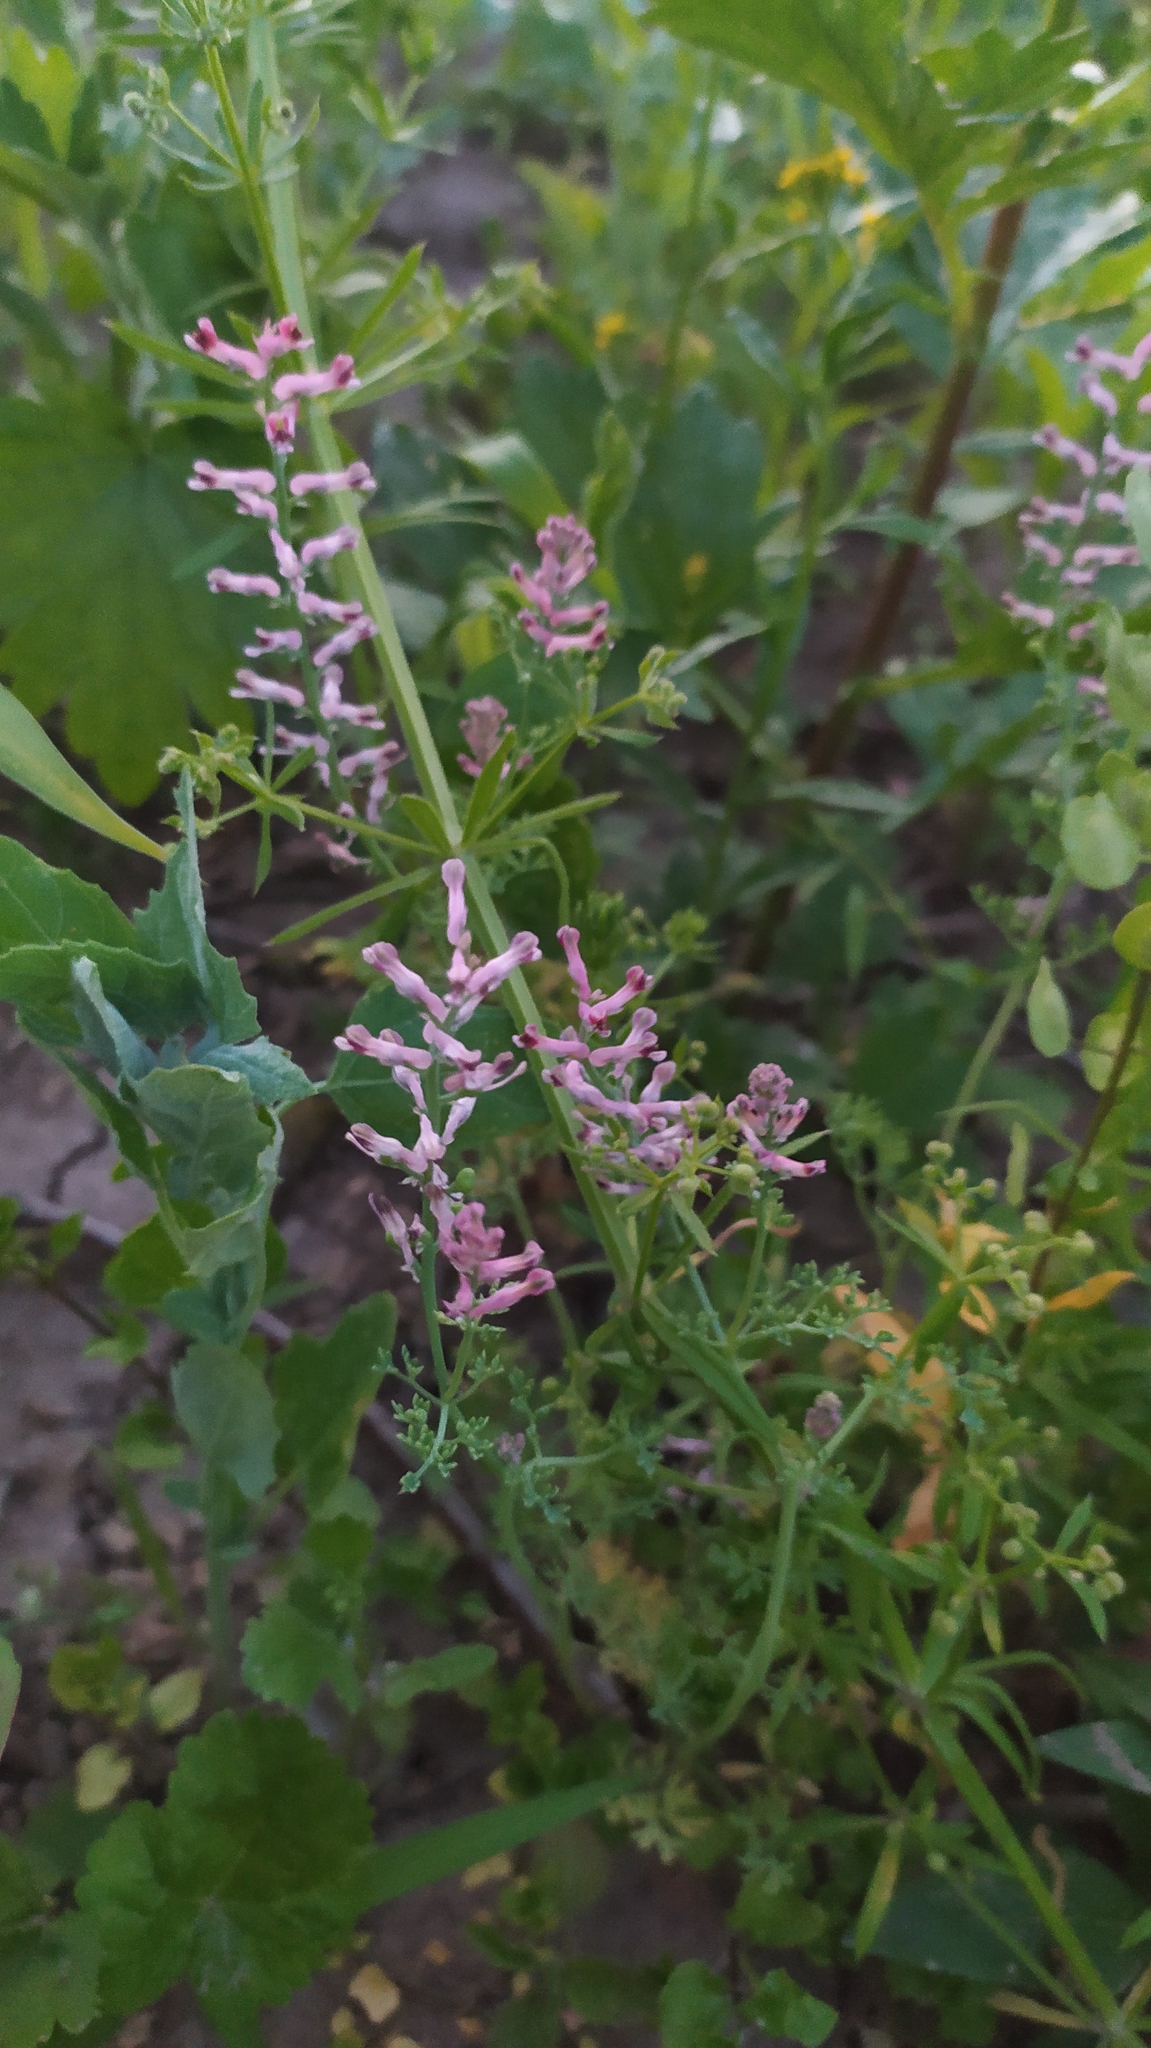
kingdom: Plantae
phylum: Tracheophyta
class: Magnoliopsida
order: Ranunculales
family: Papaveraceae
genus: Fumaria
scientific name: Fumaria officinalis
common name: Common fumitory
